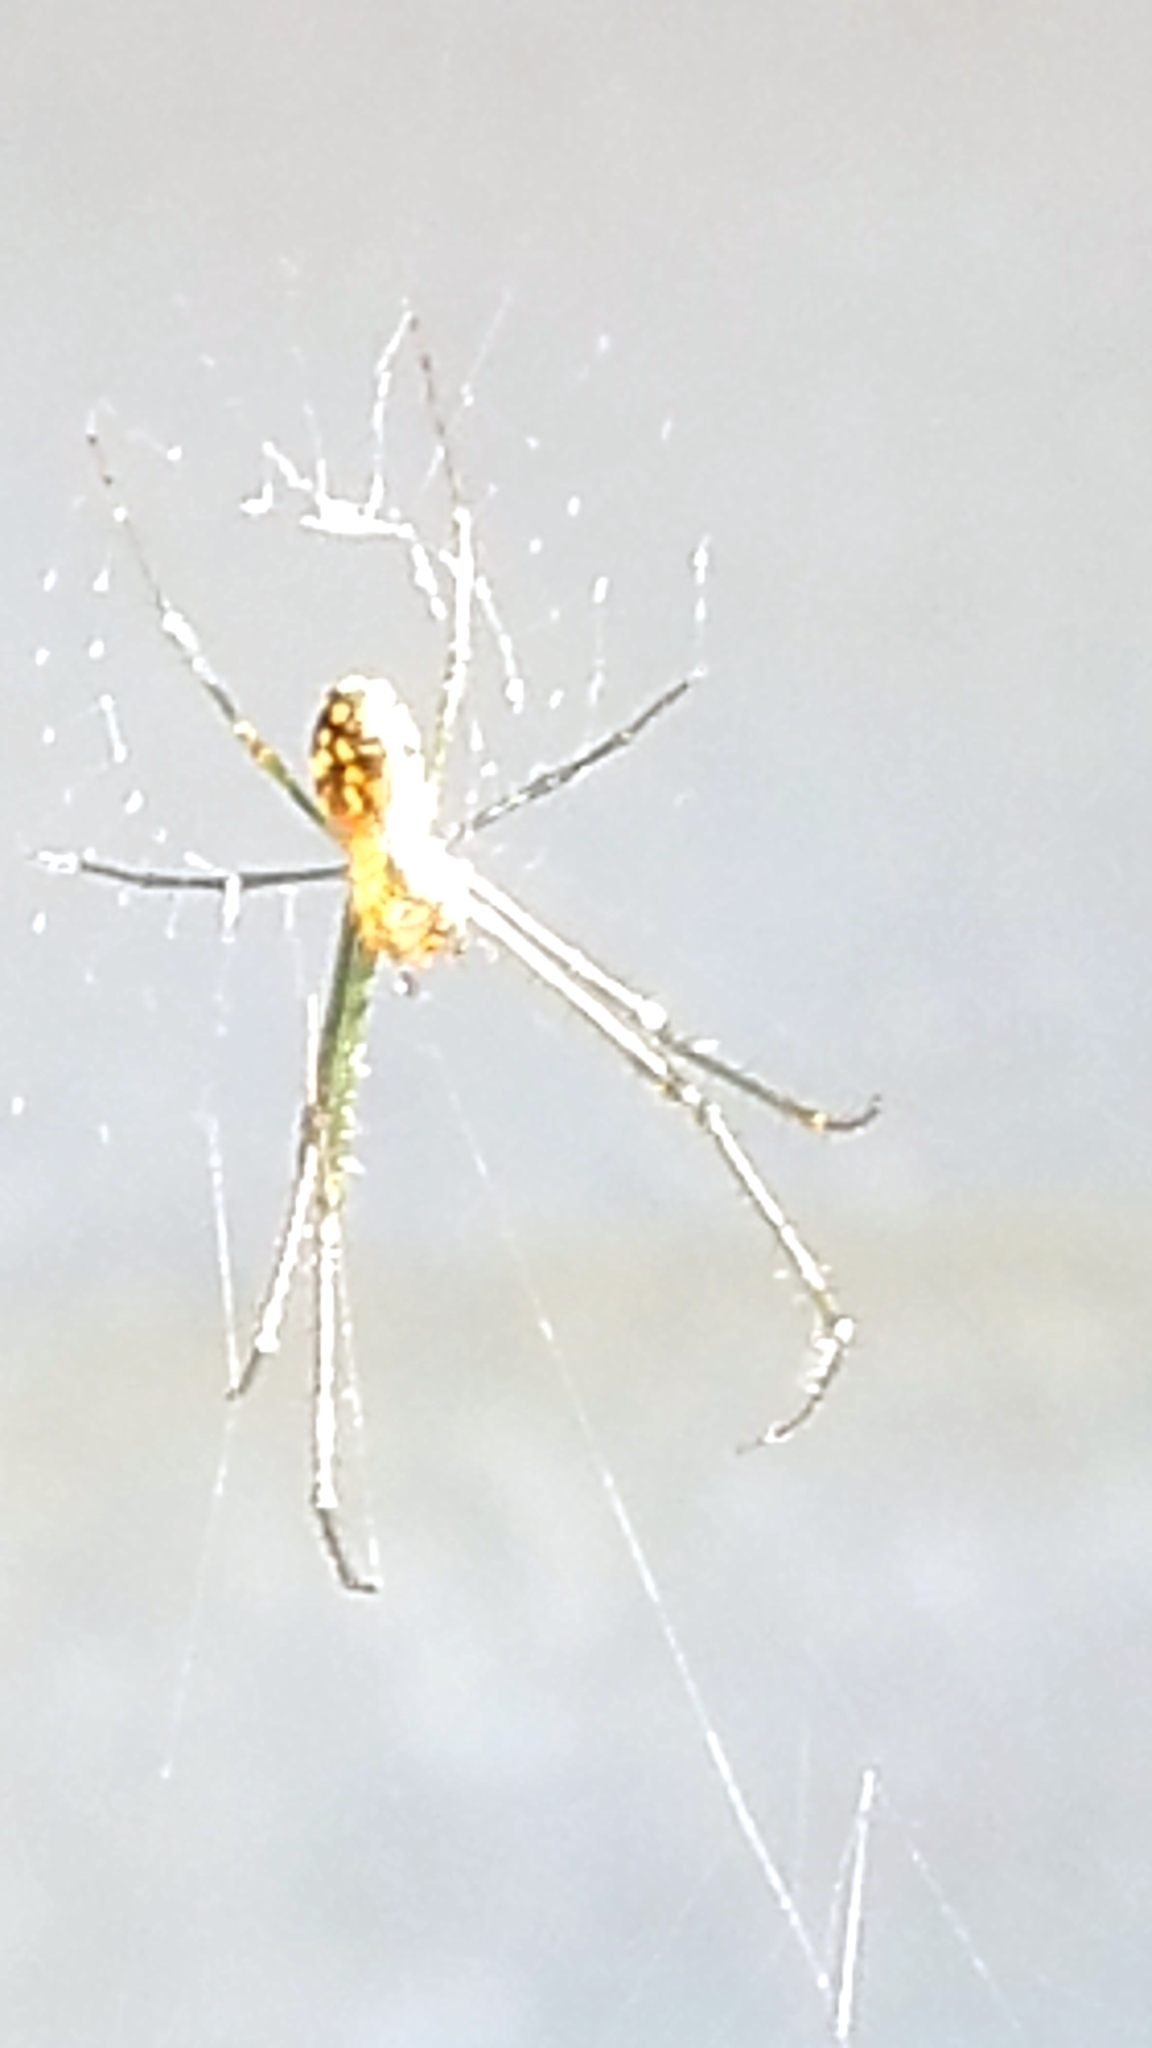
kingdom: Animalia
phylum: Arthropoda
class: Arachnida
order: Araneae
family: Tetragnathidae
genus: Leucauge
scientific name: Leucauge
